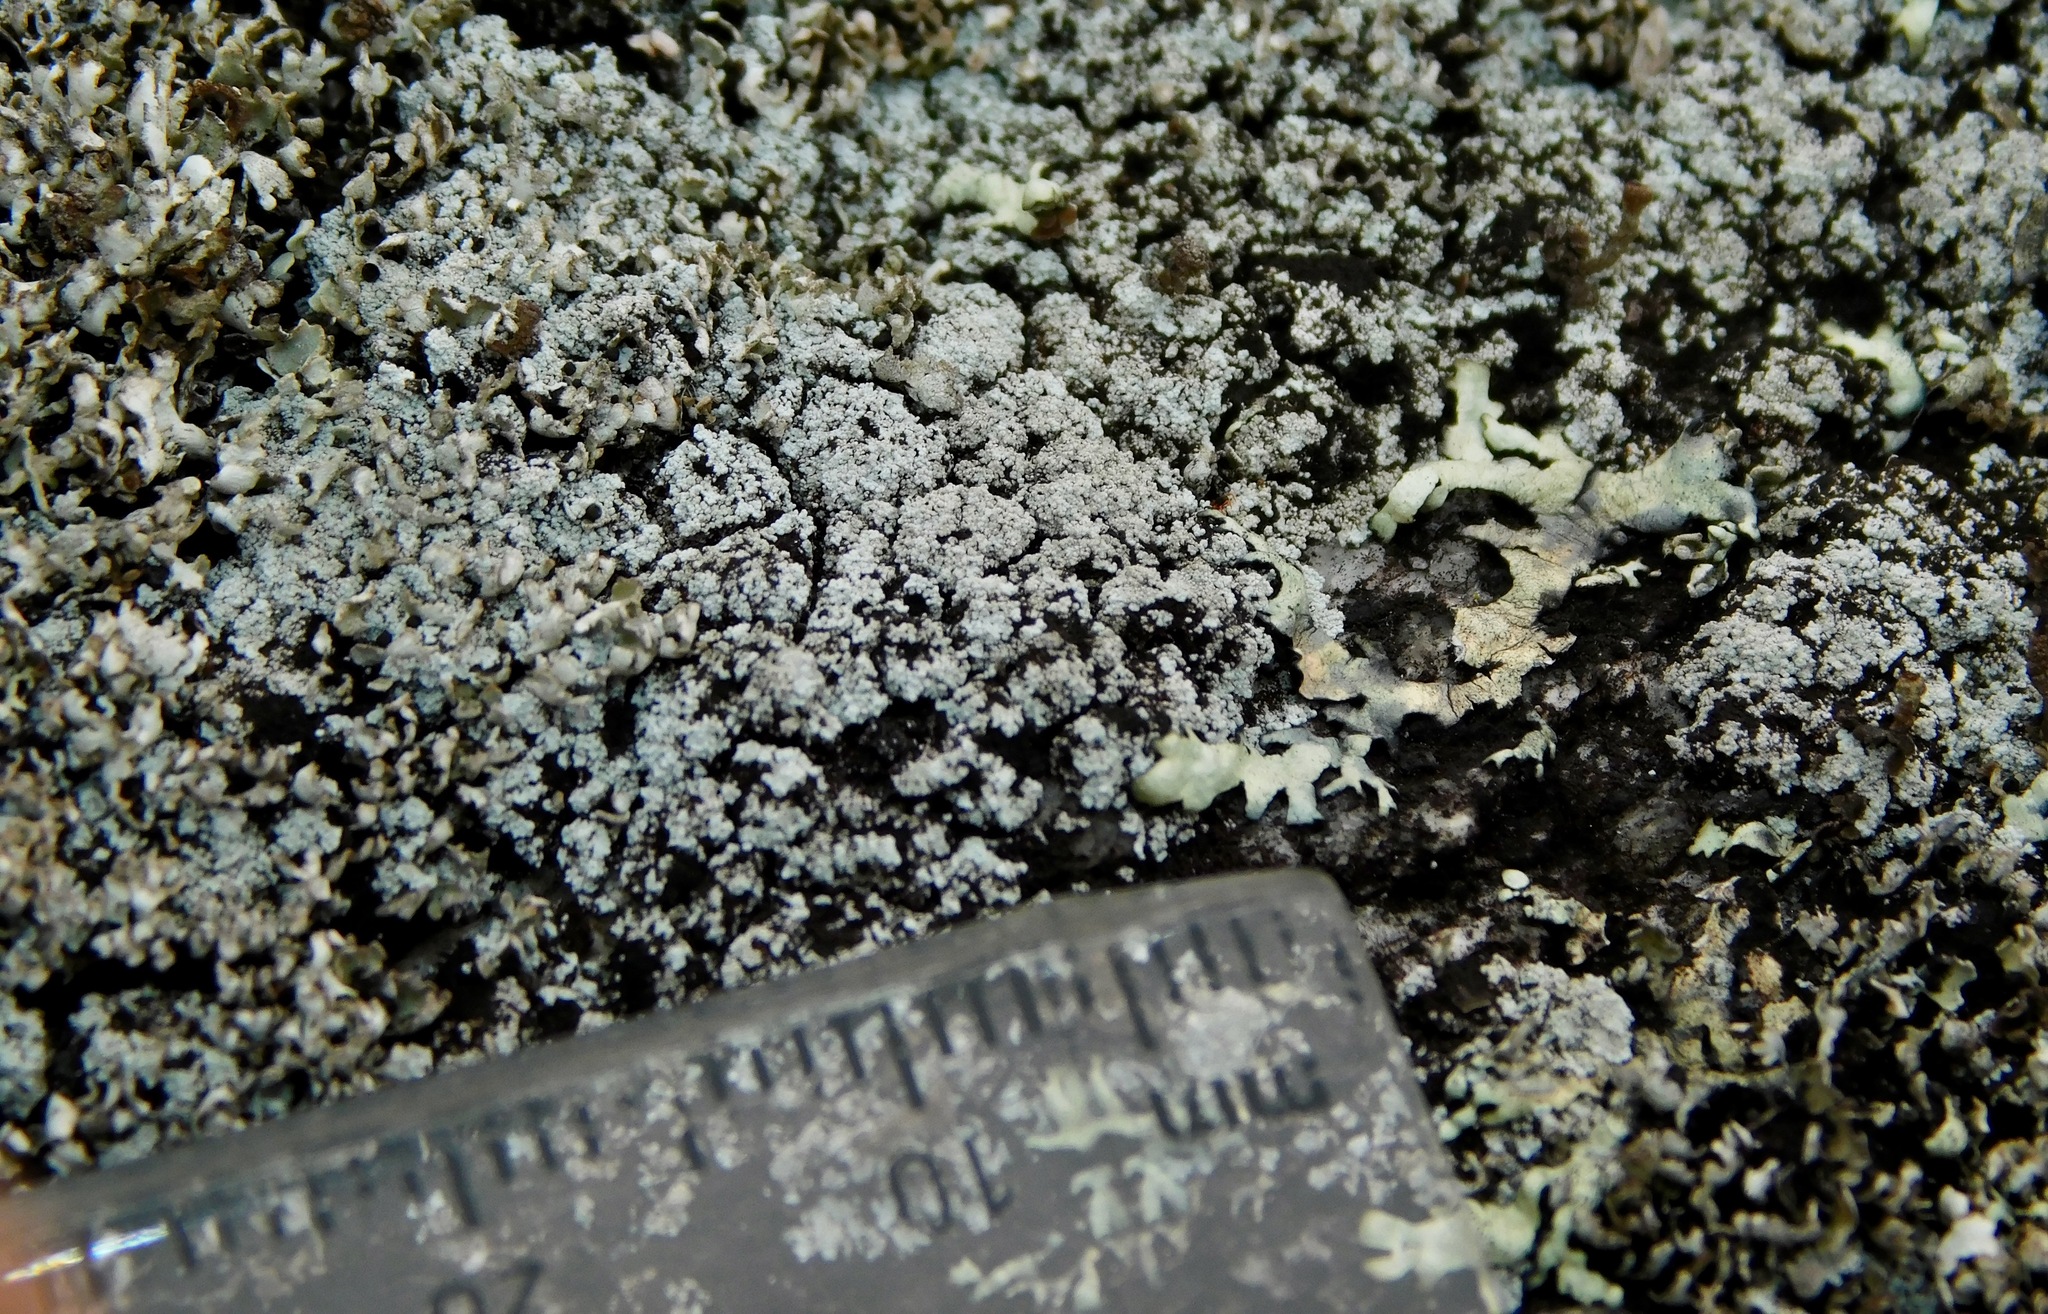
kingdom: Fungi
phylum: Ascomycota
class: Lecanoromycetes
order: Lecanorales
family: Stereocaulaceae
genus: Lepraria
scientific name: Lepraria neglecta
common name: Zoned dust lichen
